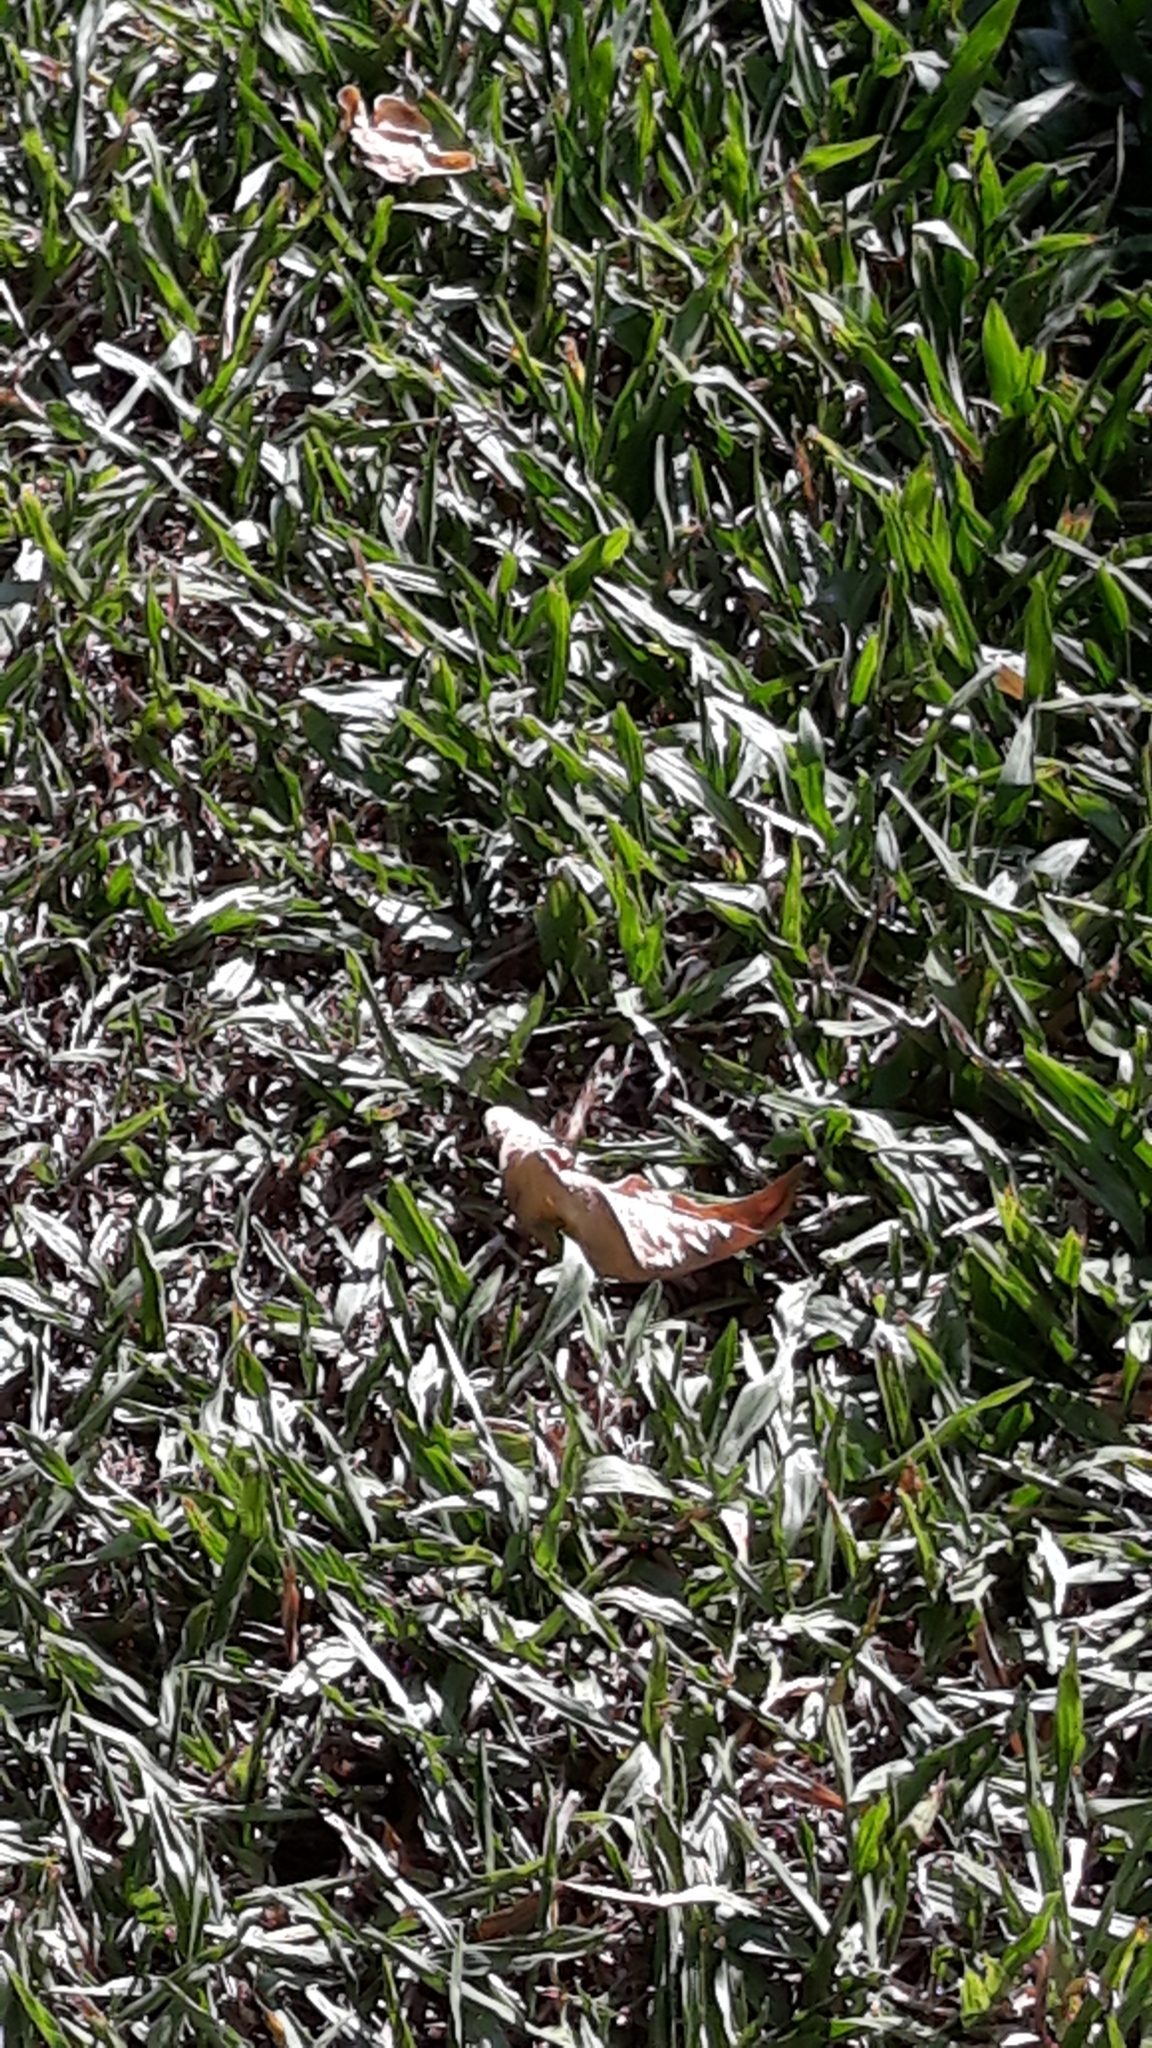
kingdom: Animalia
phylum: Arthropoda
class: Insecta
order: Lepidoptera
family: Nymphalidae
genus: Pararge
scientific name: Pararge aegeria
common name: Speckled wood
